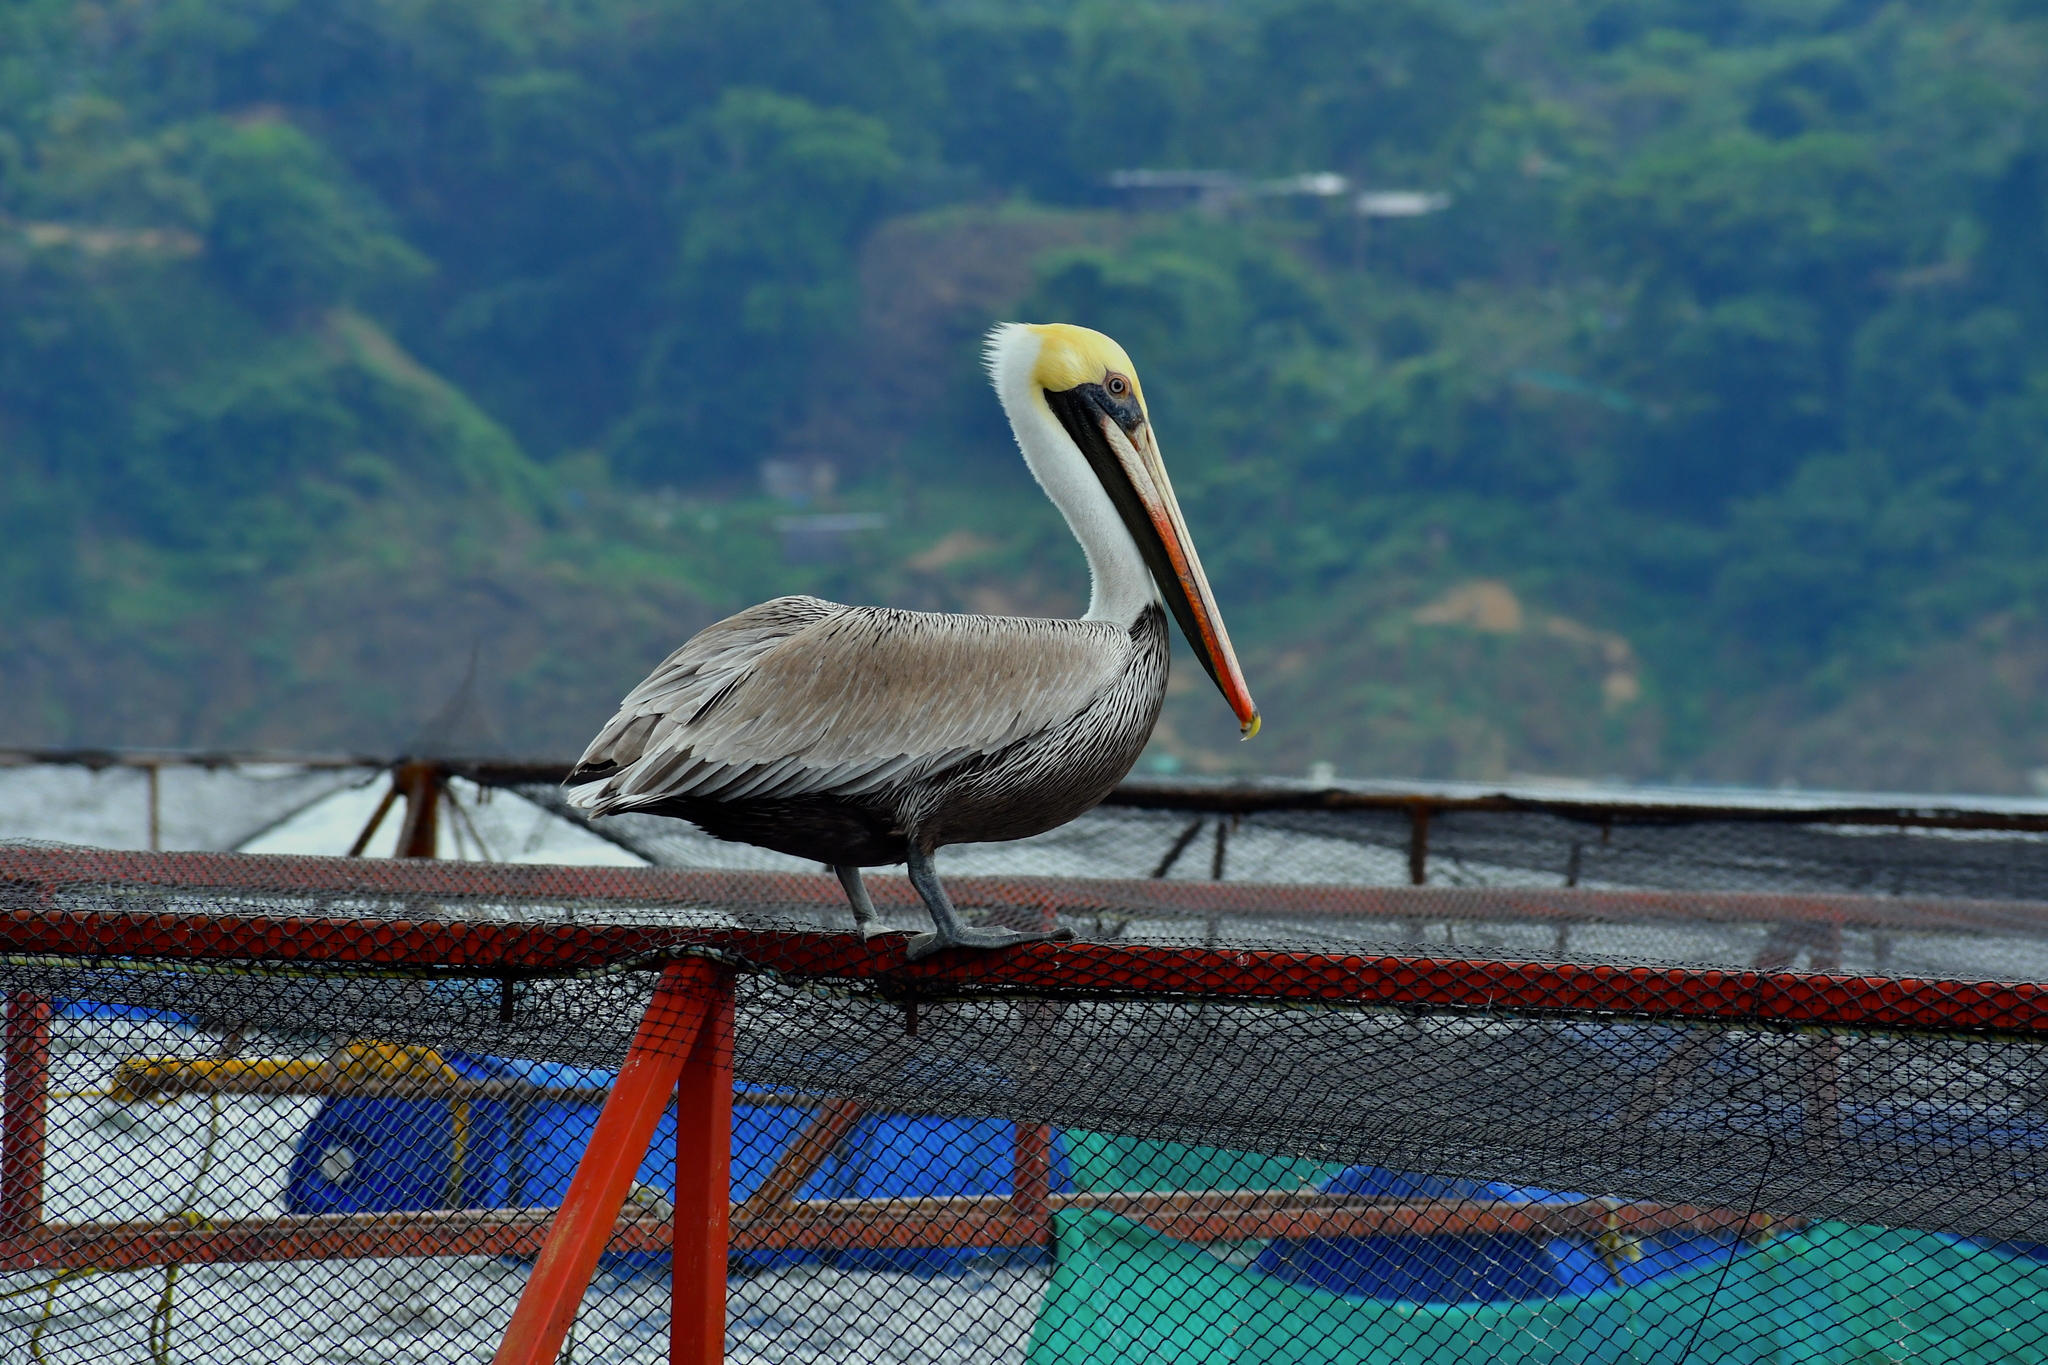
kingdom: Animalia
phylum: Chordata
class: Aves
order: Pelecaniformes
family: Pelecanidae
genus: Pelecanus
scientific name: Pelecanus occidentalis
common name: Brown pelican
